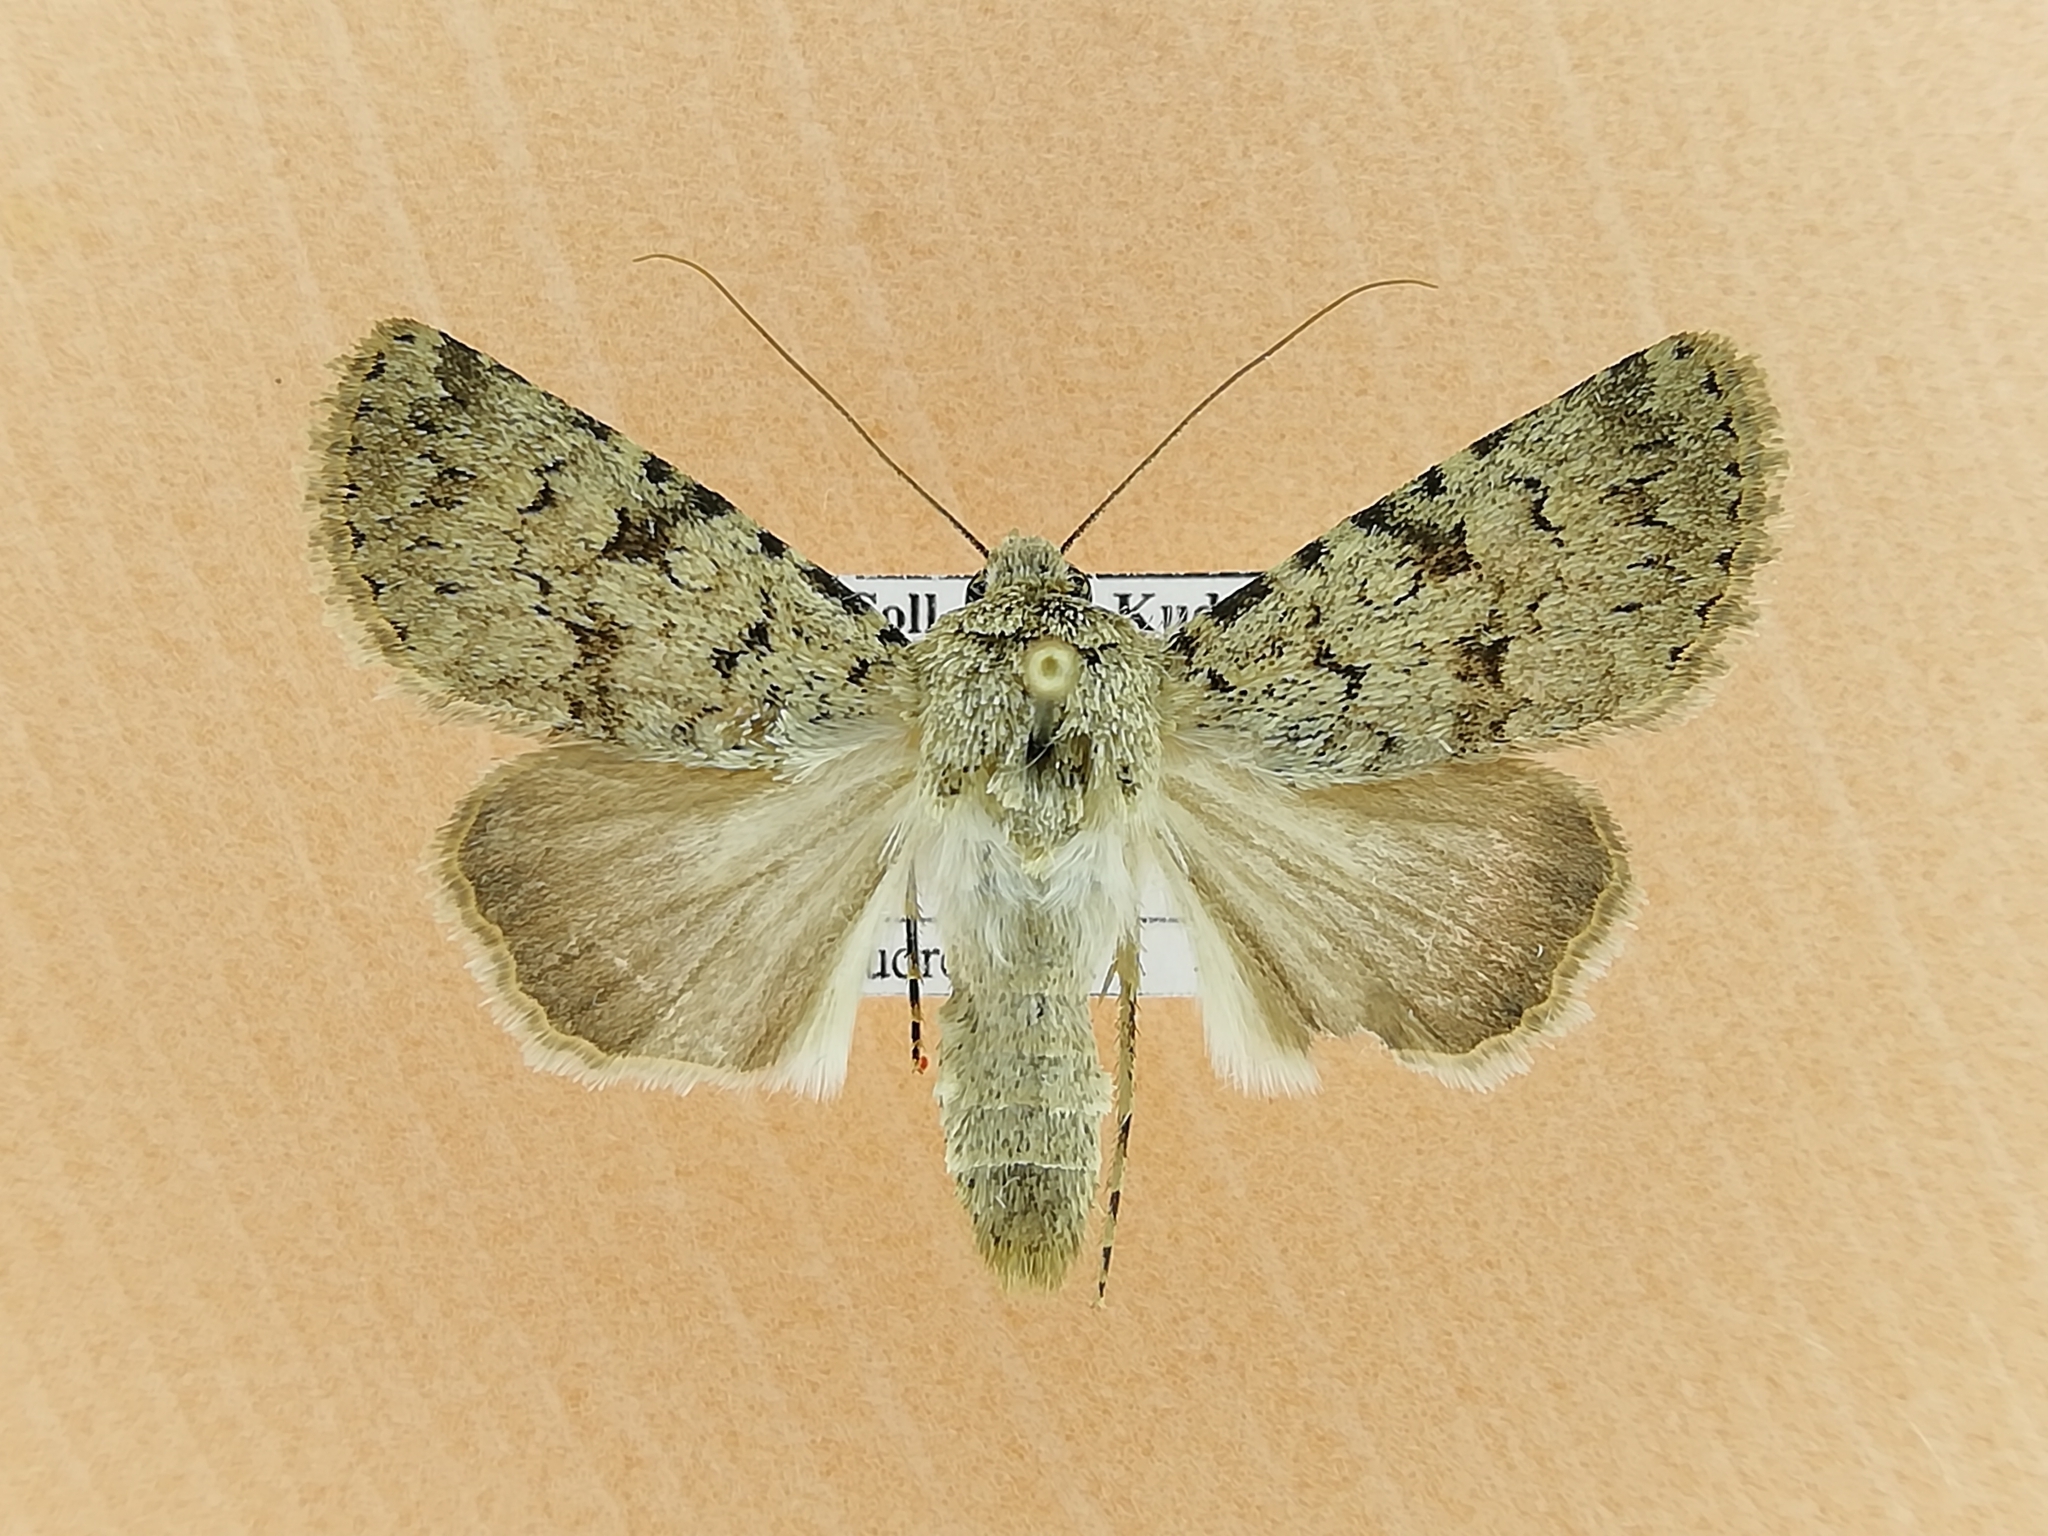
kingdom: Animalia
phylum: Arthropoda
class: Insecta
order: Lepidoptera
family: Noctuidae
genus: Dichagyris
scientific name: Dichagyris vallesiaca
